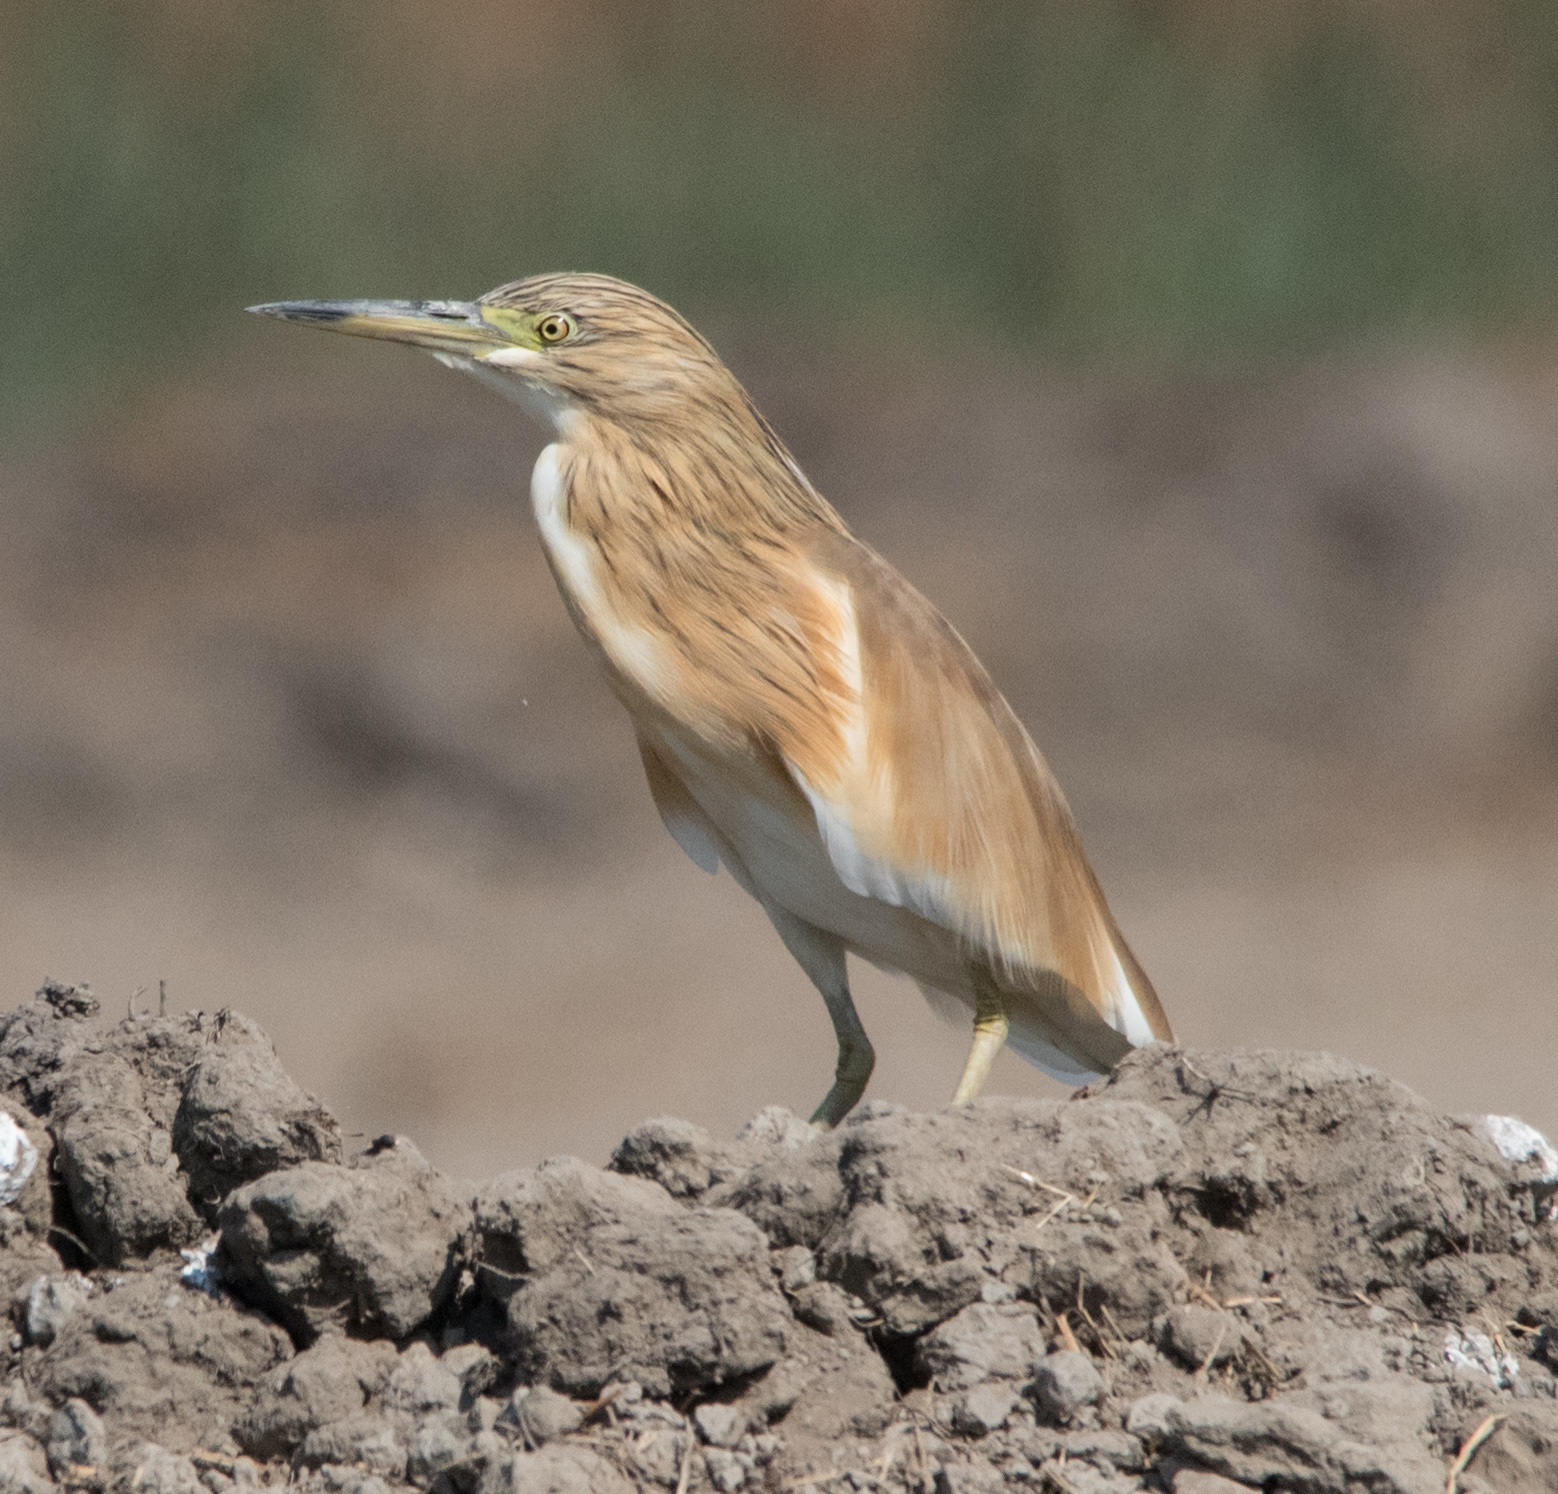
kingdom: Animalia
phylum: Chordata
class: Aves
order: Pelecaniformes
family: Ardeidae
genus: Ardeola
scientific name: Ardeola ralloides
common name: Squacco heron
